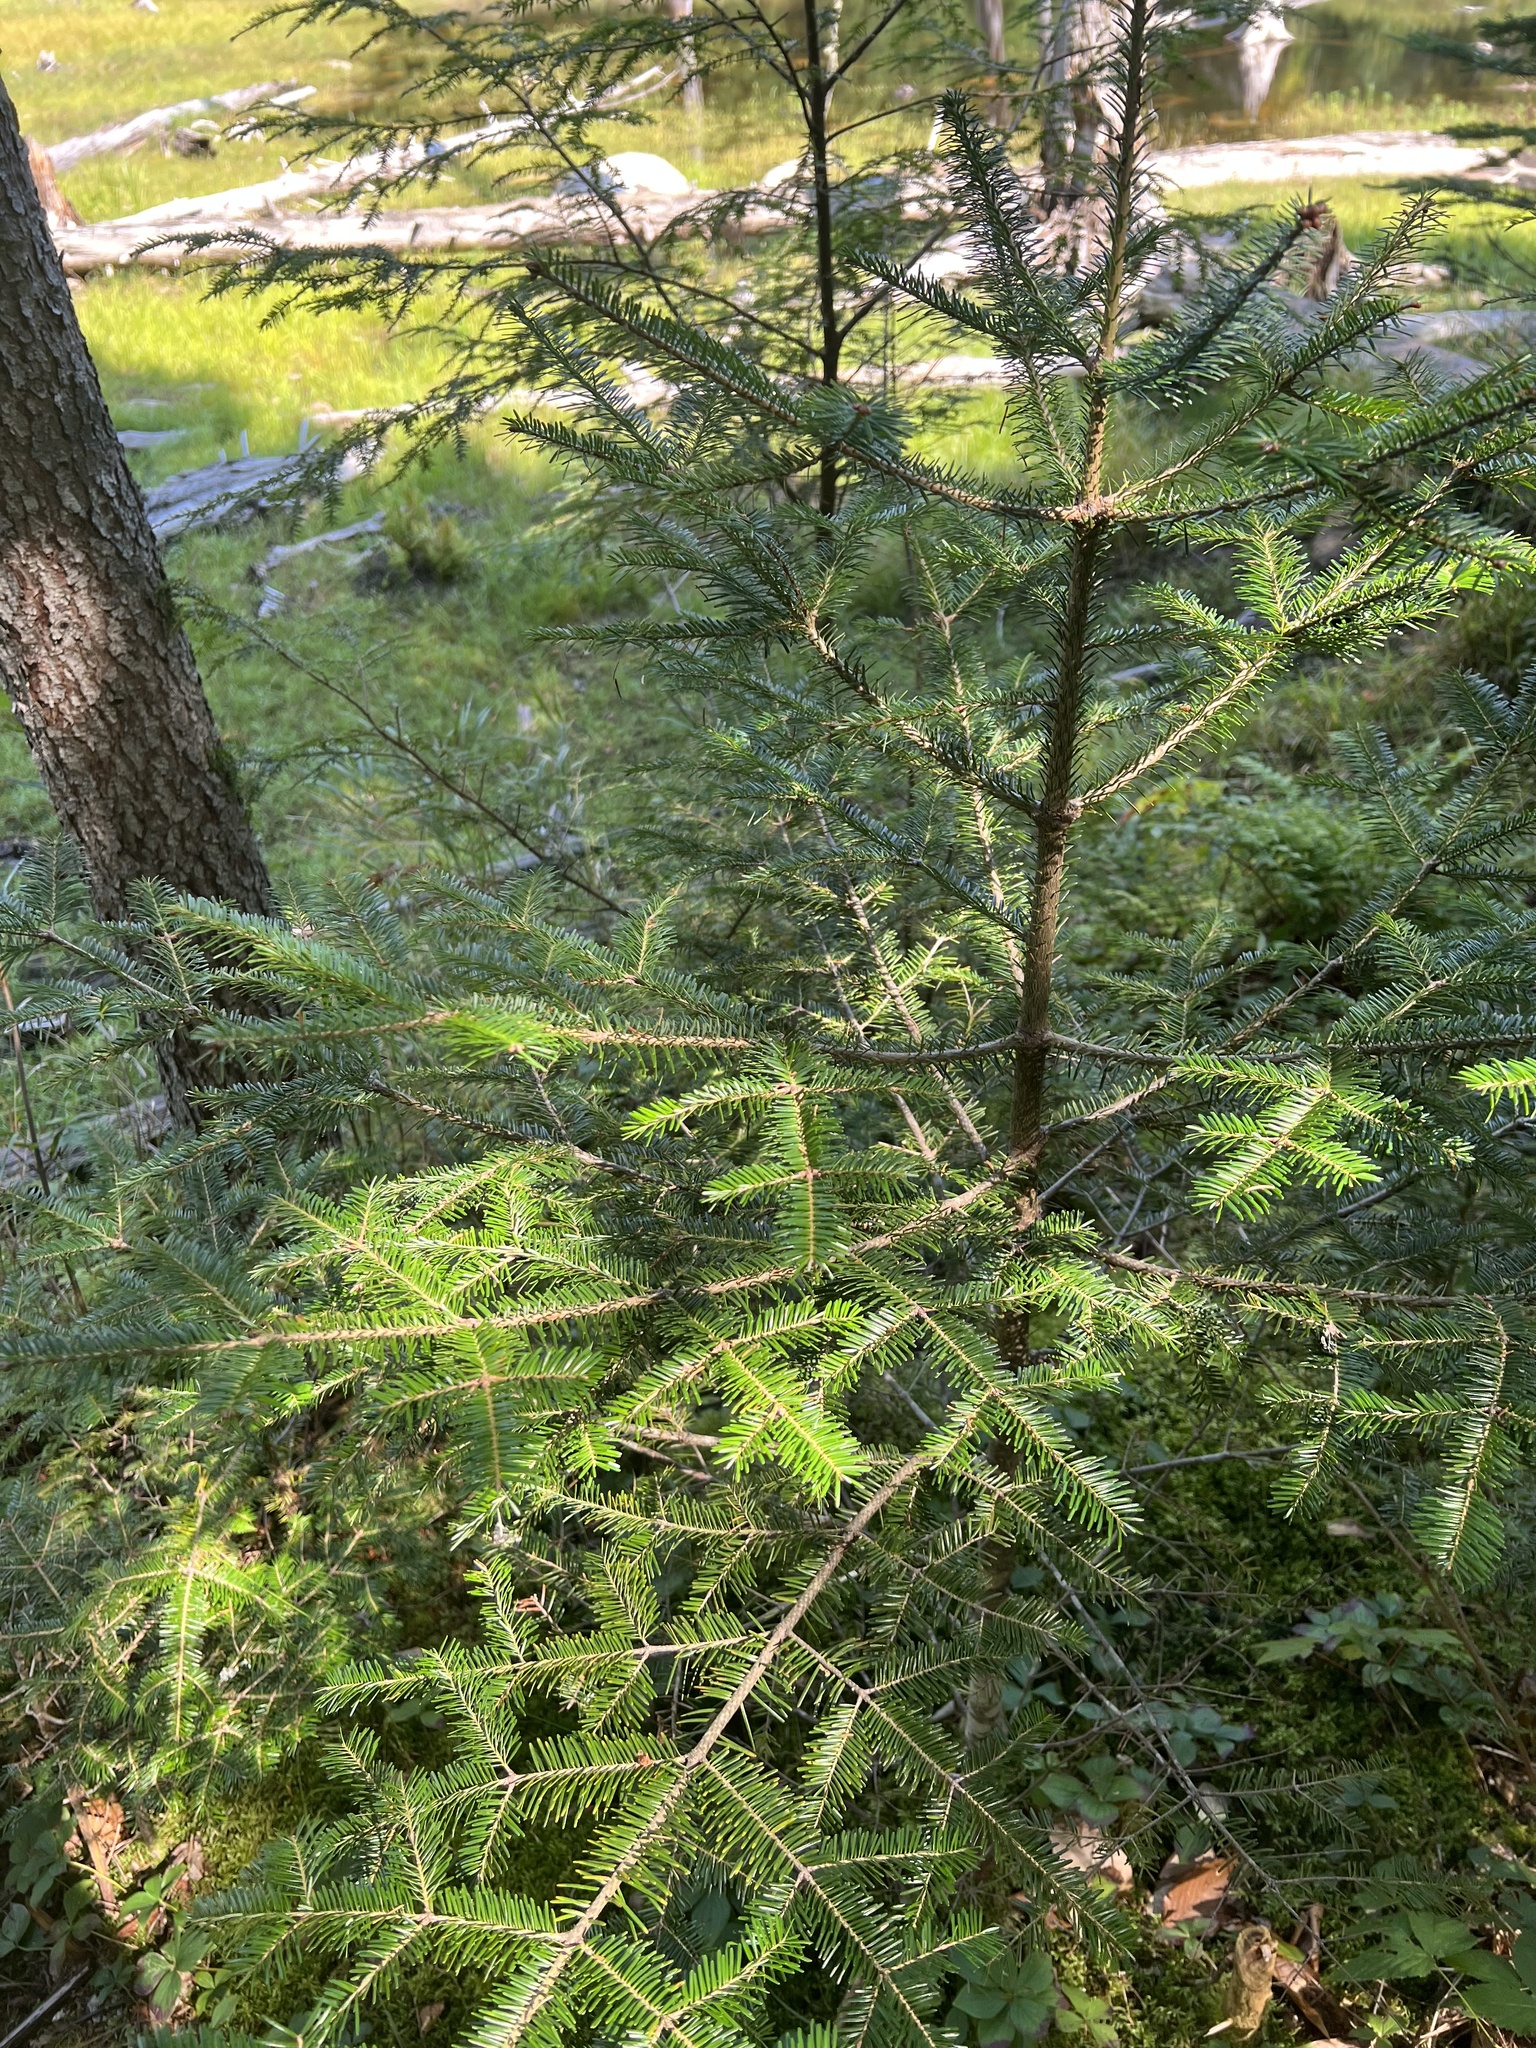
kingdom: Plantae
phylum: Tracheophyta
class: Pinopsida
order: Pinales
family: Pinaceae
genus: Abies
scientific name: Abies balsamea
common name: Balsam fir
